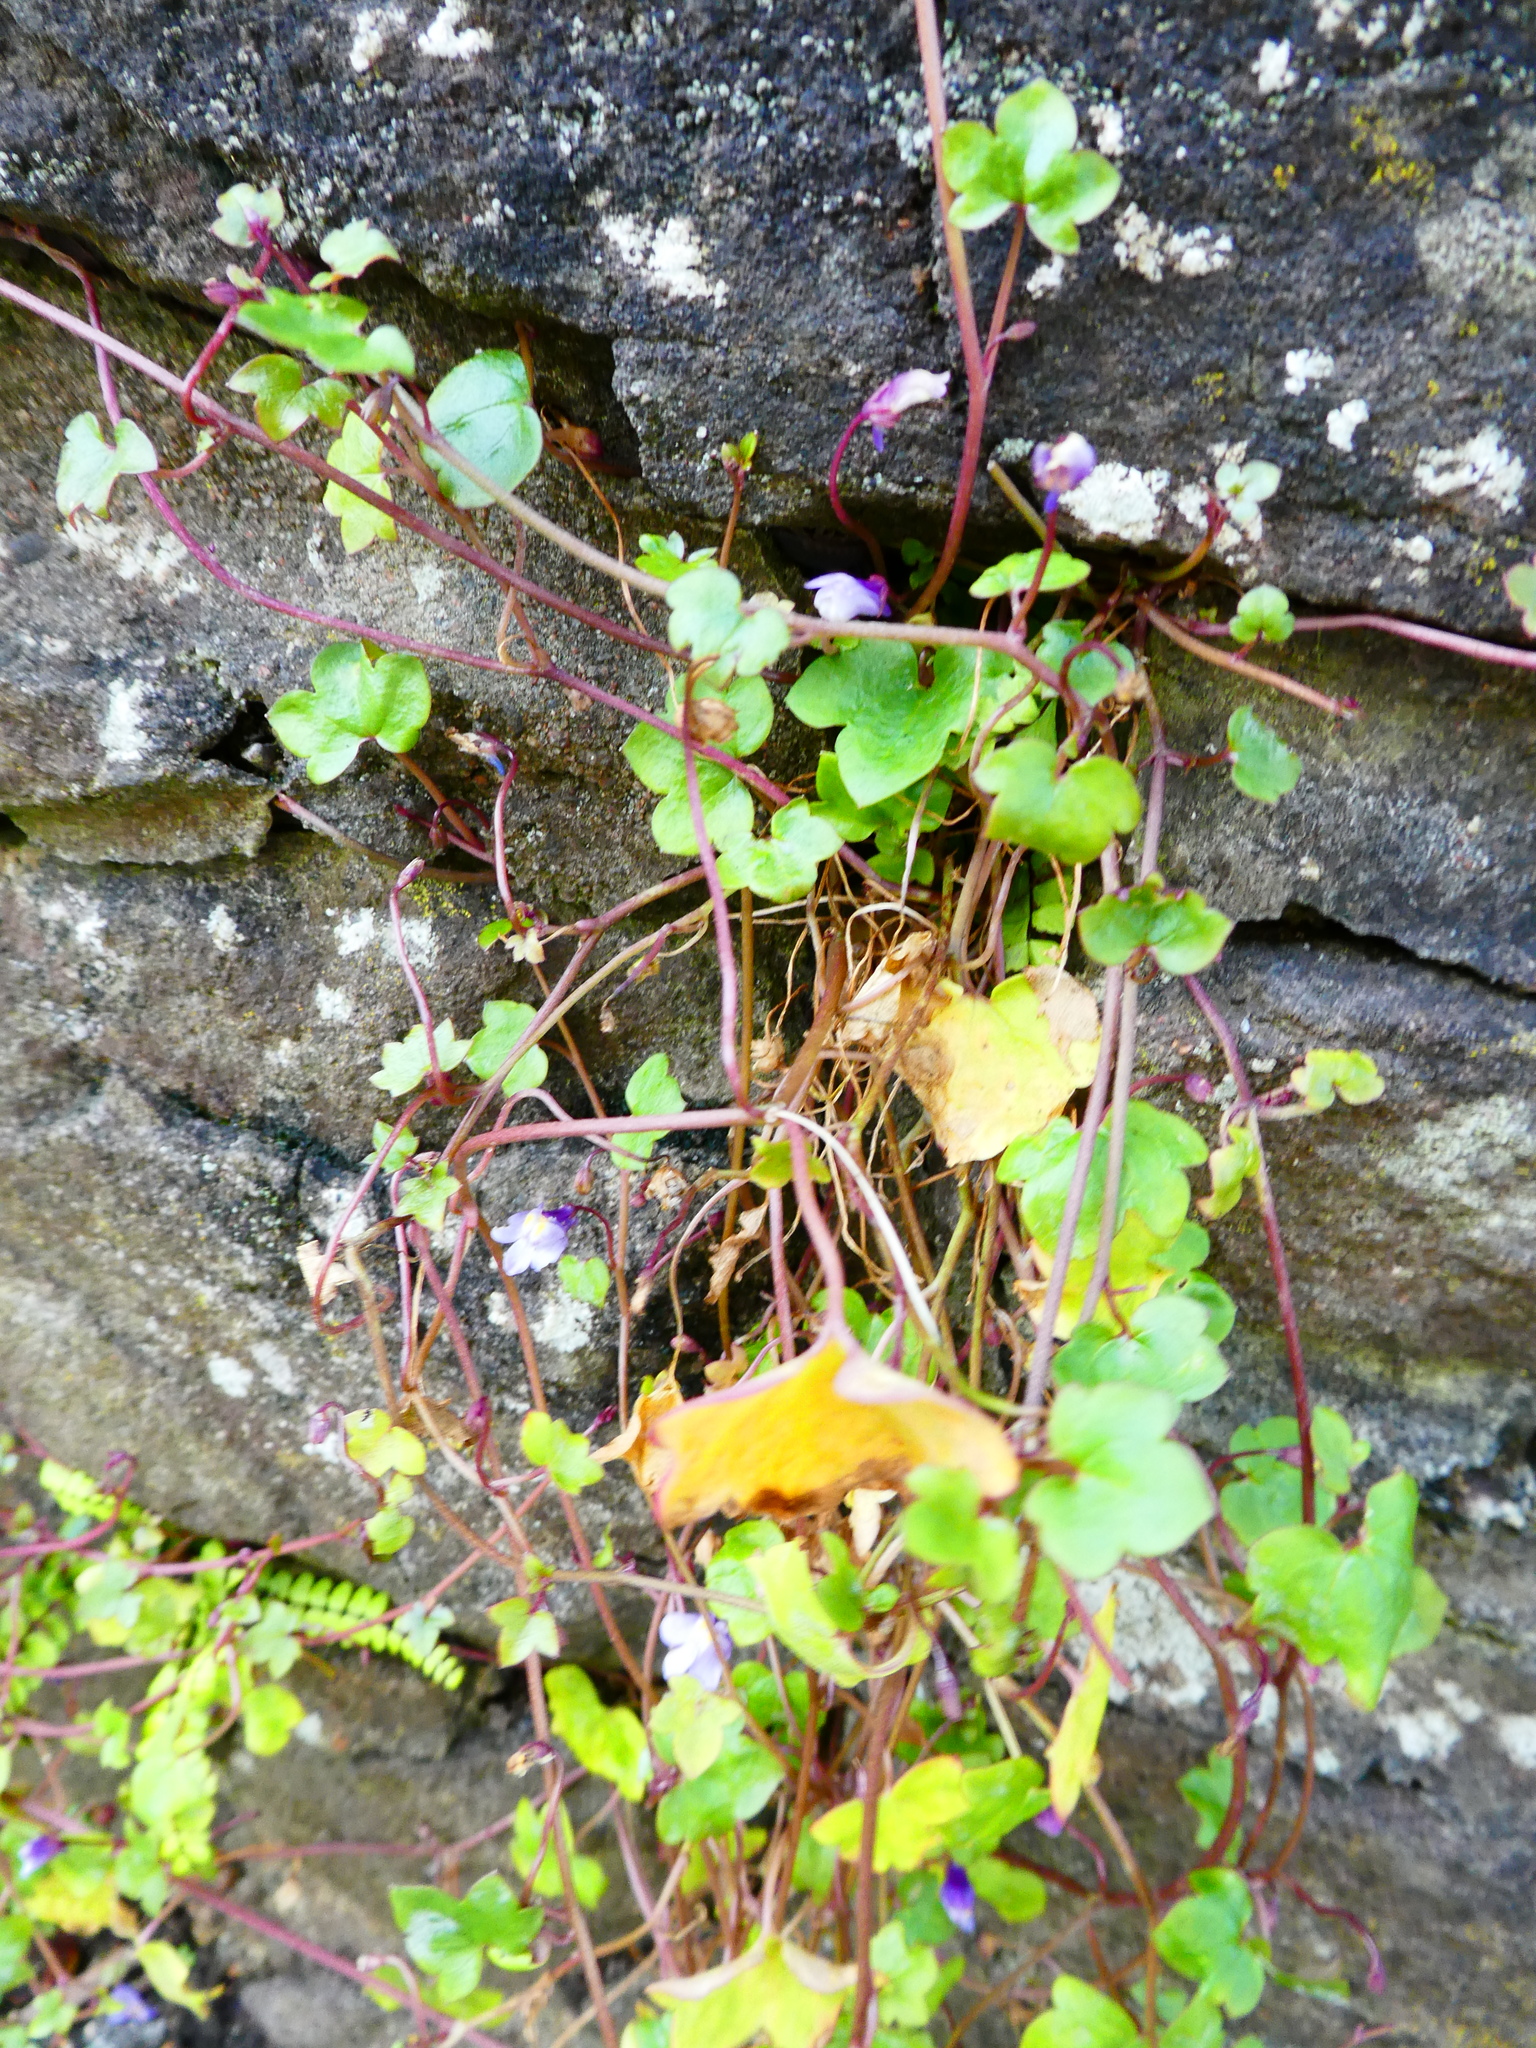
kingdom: Plantae
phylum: Tracheophyta
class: Magnoliopsida
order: Lamiales
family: Plantaginaceae
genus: Cymbalaria
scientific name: Cymbalaria muralis
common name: Ivy-leaved toadflax
